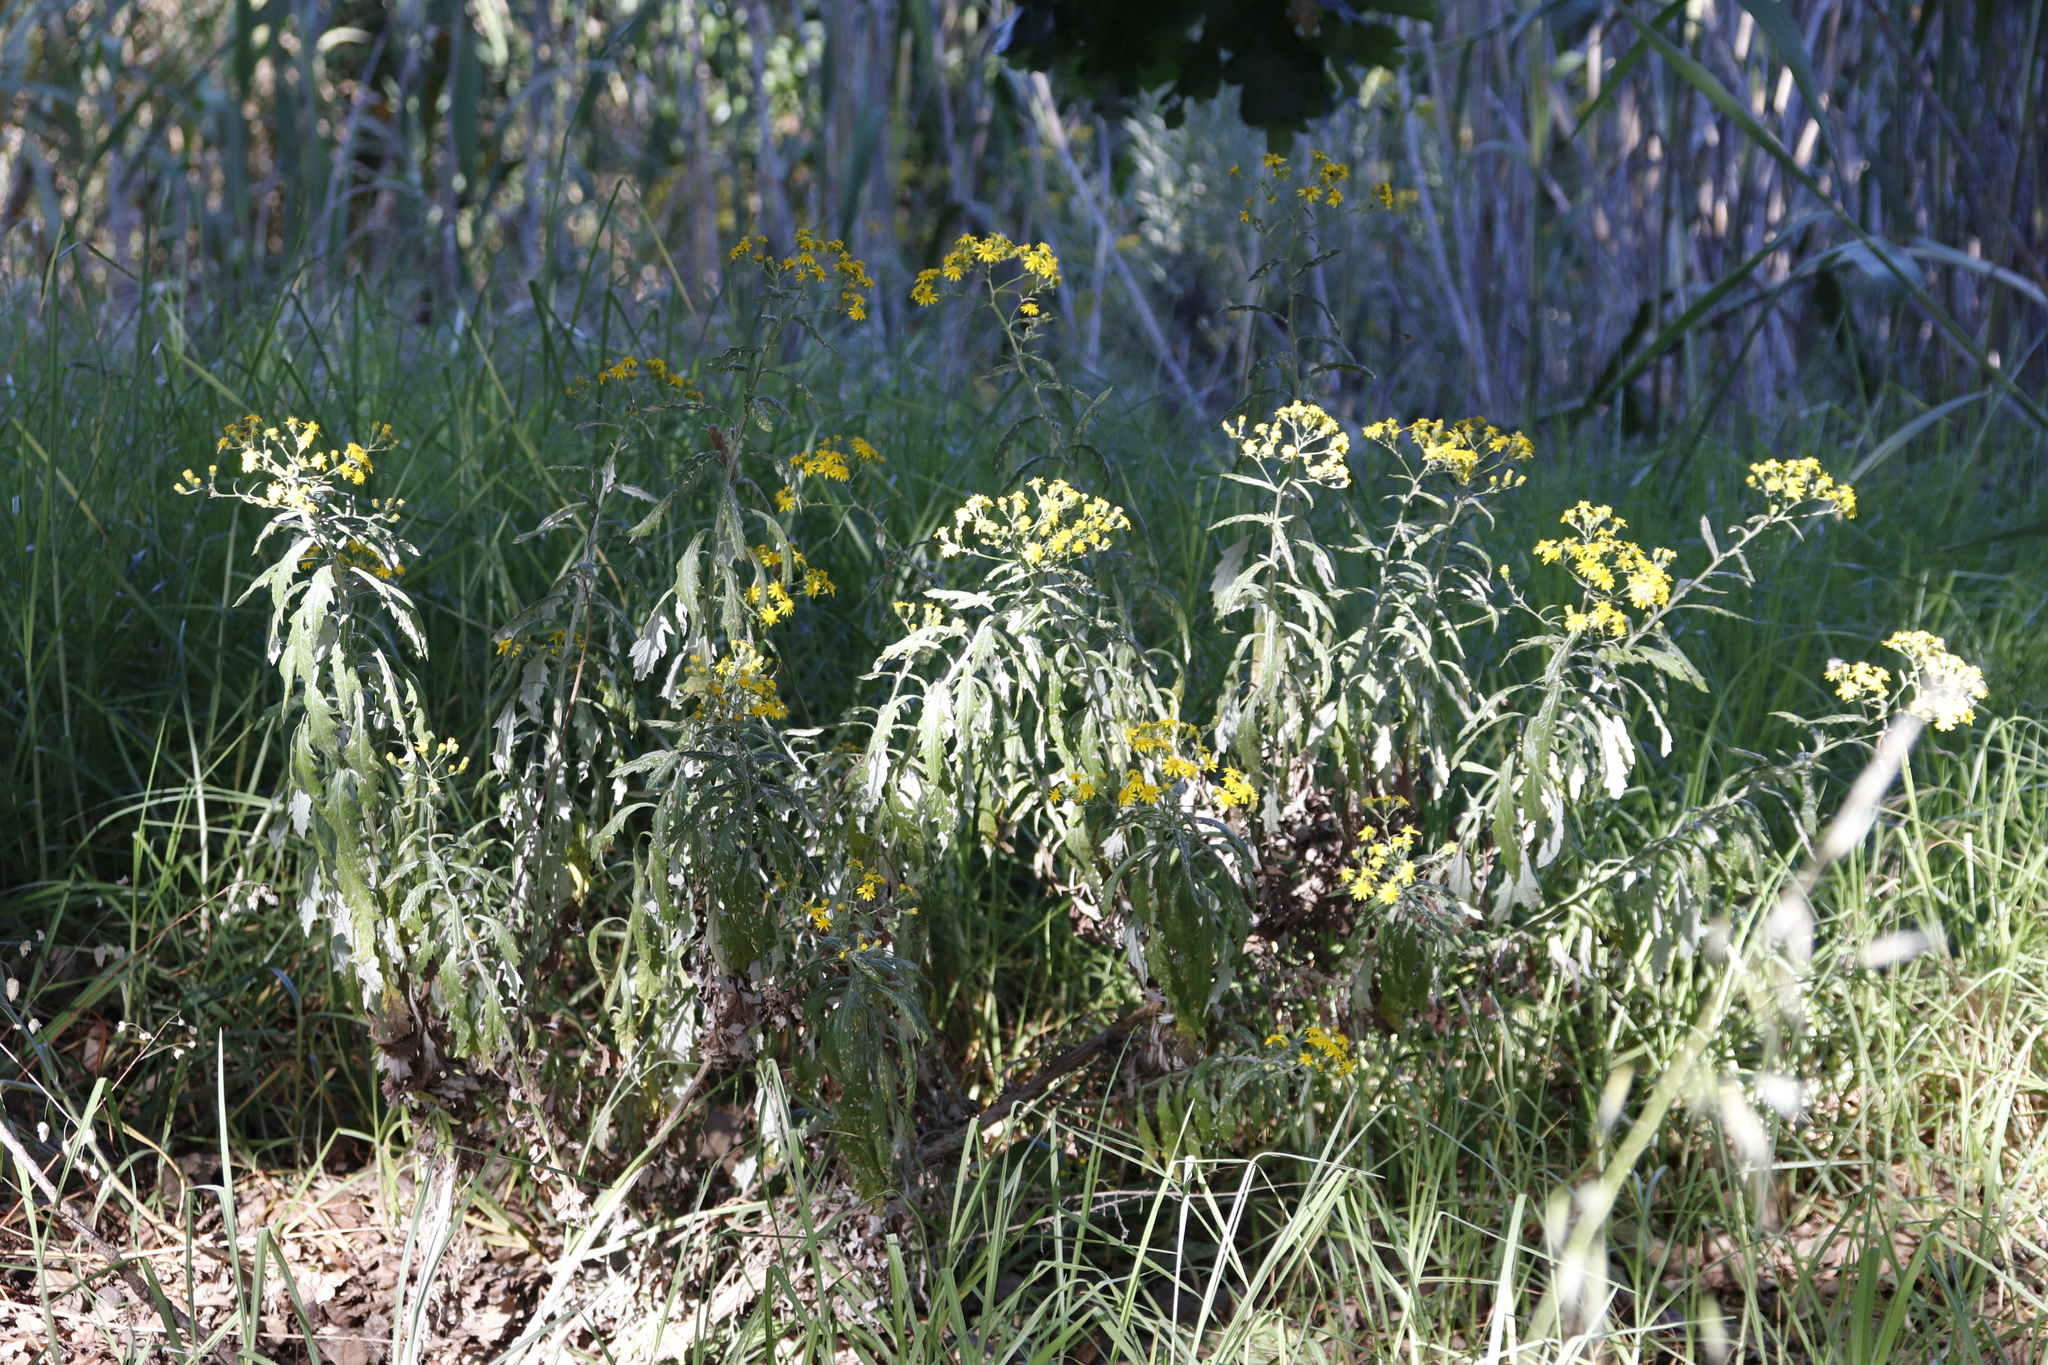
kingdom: Plantae
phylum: Tracheophyta
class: Magnoliopsida
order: Asterales
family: Asteraceae
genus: Senecio
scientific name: Senecio pterophorus
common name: Shoddy ragwort
